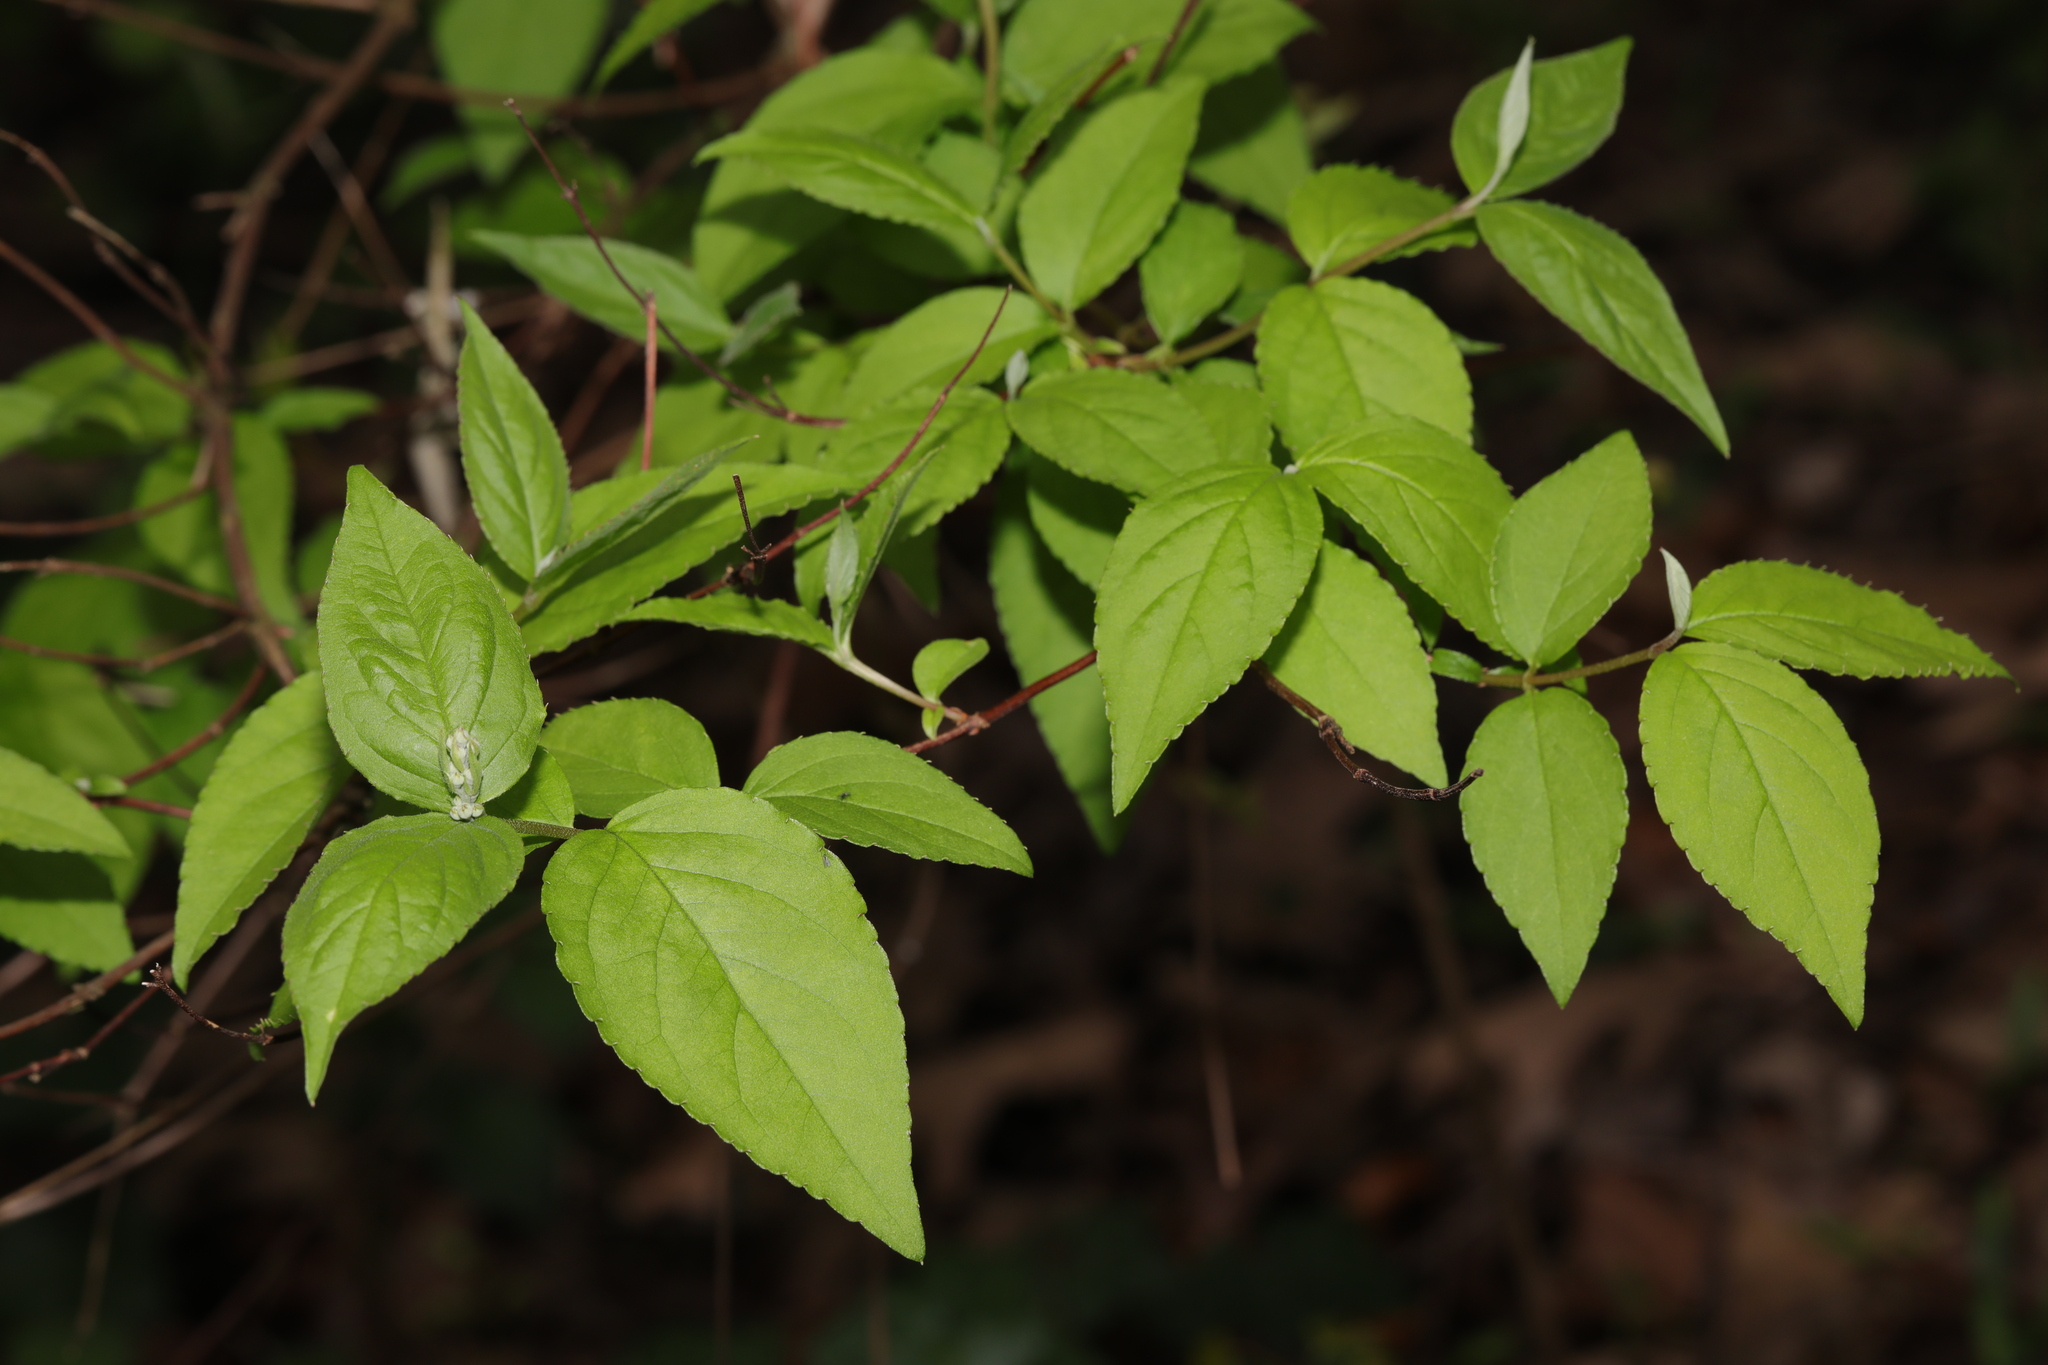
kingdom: Plantae
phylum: Tracheophyta
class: Magnoliopsida
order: Cornales
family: Hydrangeaceae
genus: Deutzia
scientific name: Deutzia scabra
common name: Deutzia
